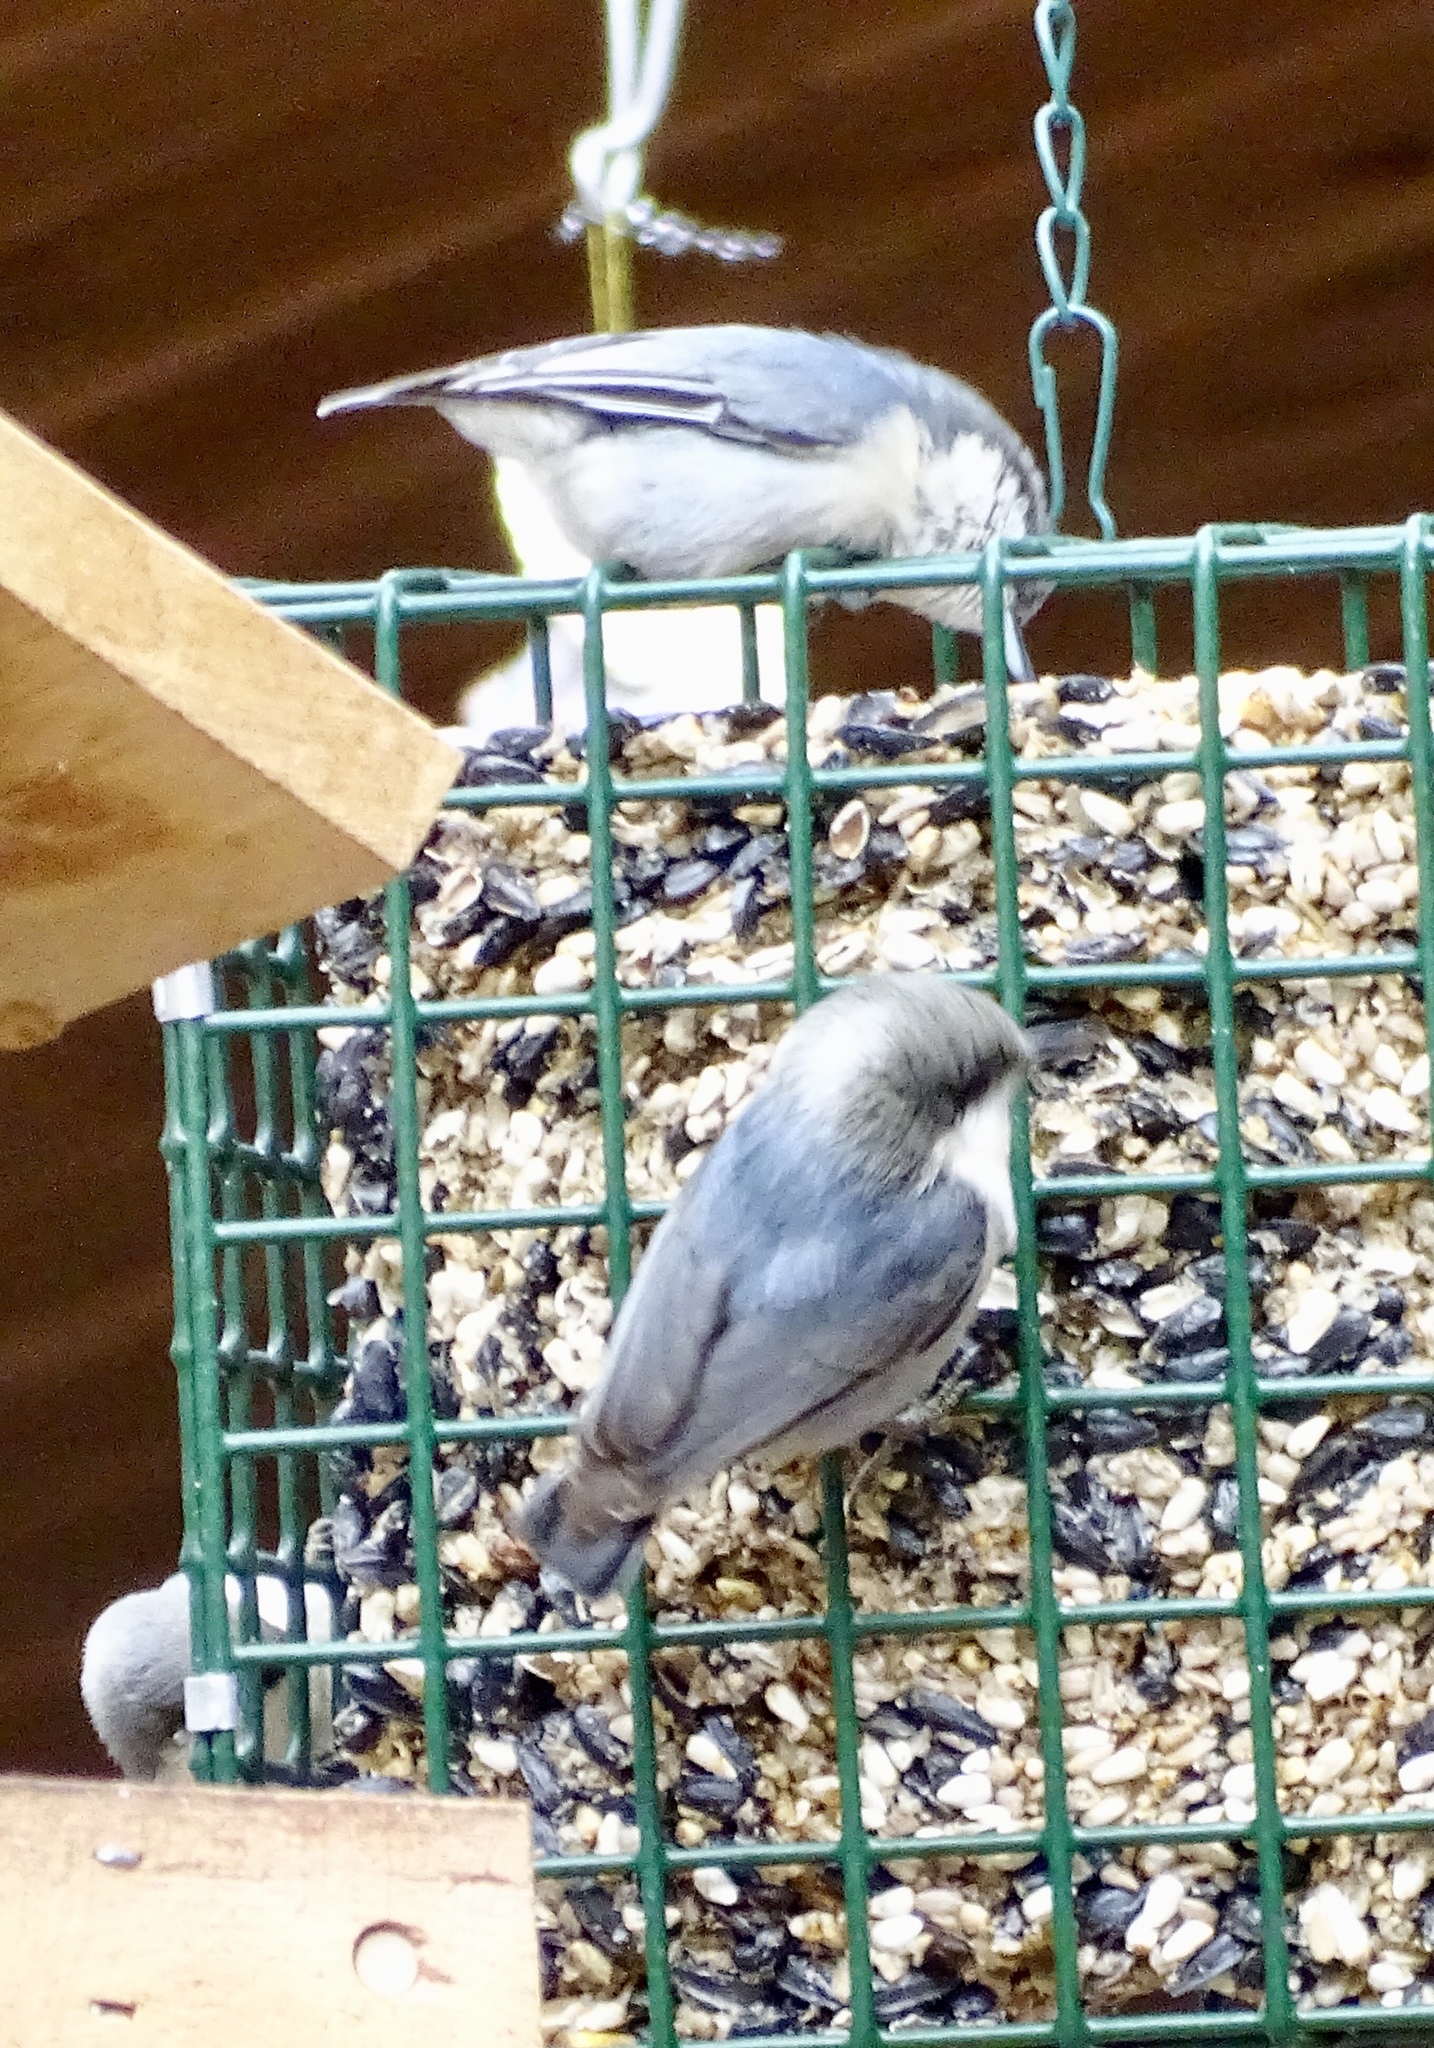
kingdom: Animalia
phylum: Chordata
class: Aves
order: Passeriformes
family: Sittidae
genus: Sitta
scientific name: Sitta pygmaea
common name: Pygmy nuthatch
